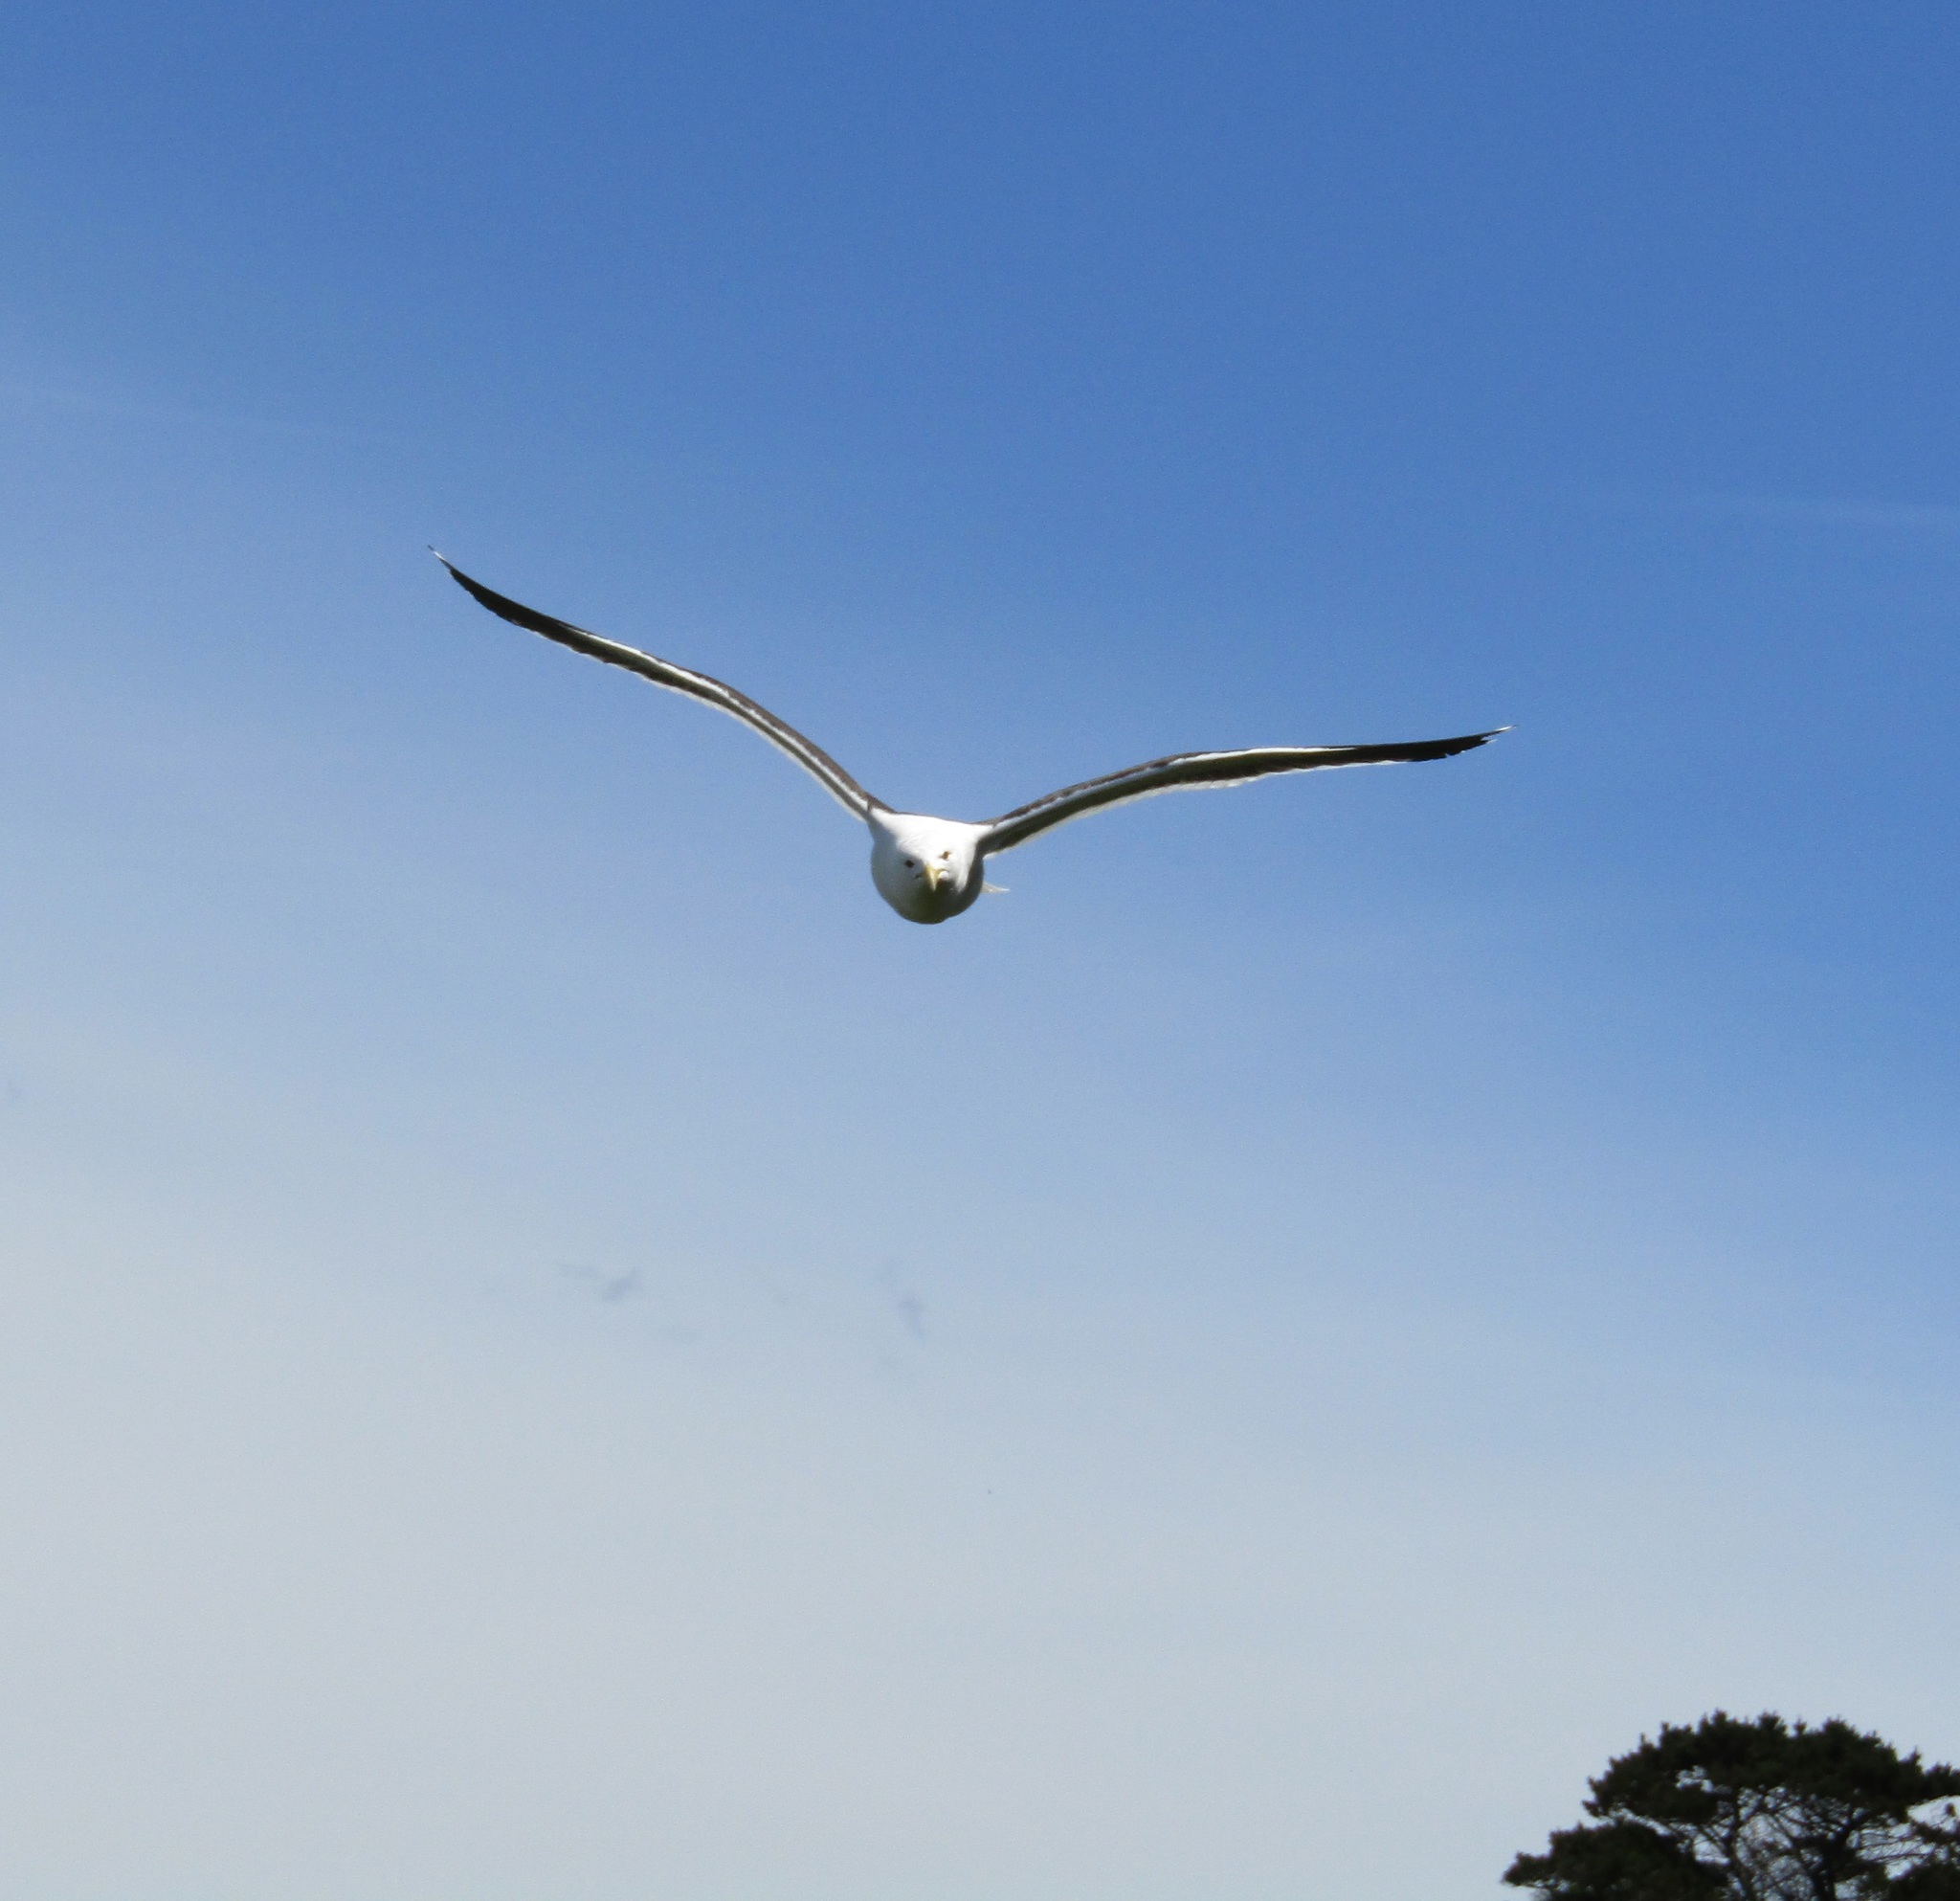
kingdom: Animalia
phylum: Chordata
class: Aves
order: Charadriiformes
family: Laridae
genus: Larus
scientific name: Larus dominicanus
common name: Kelp gull
